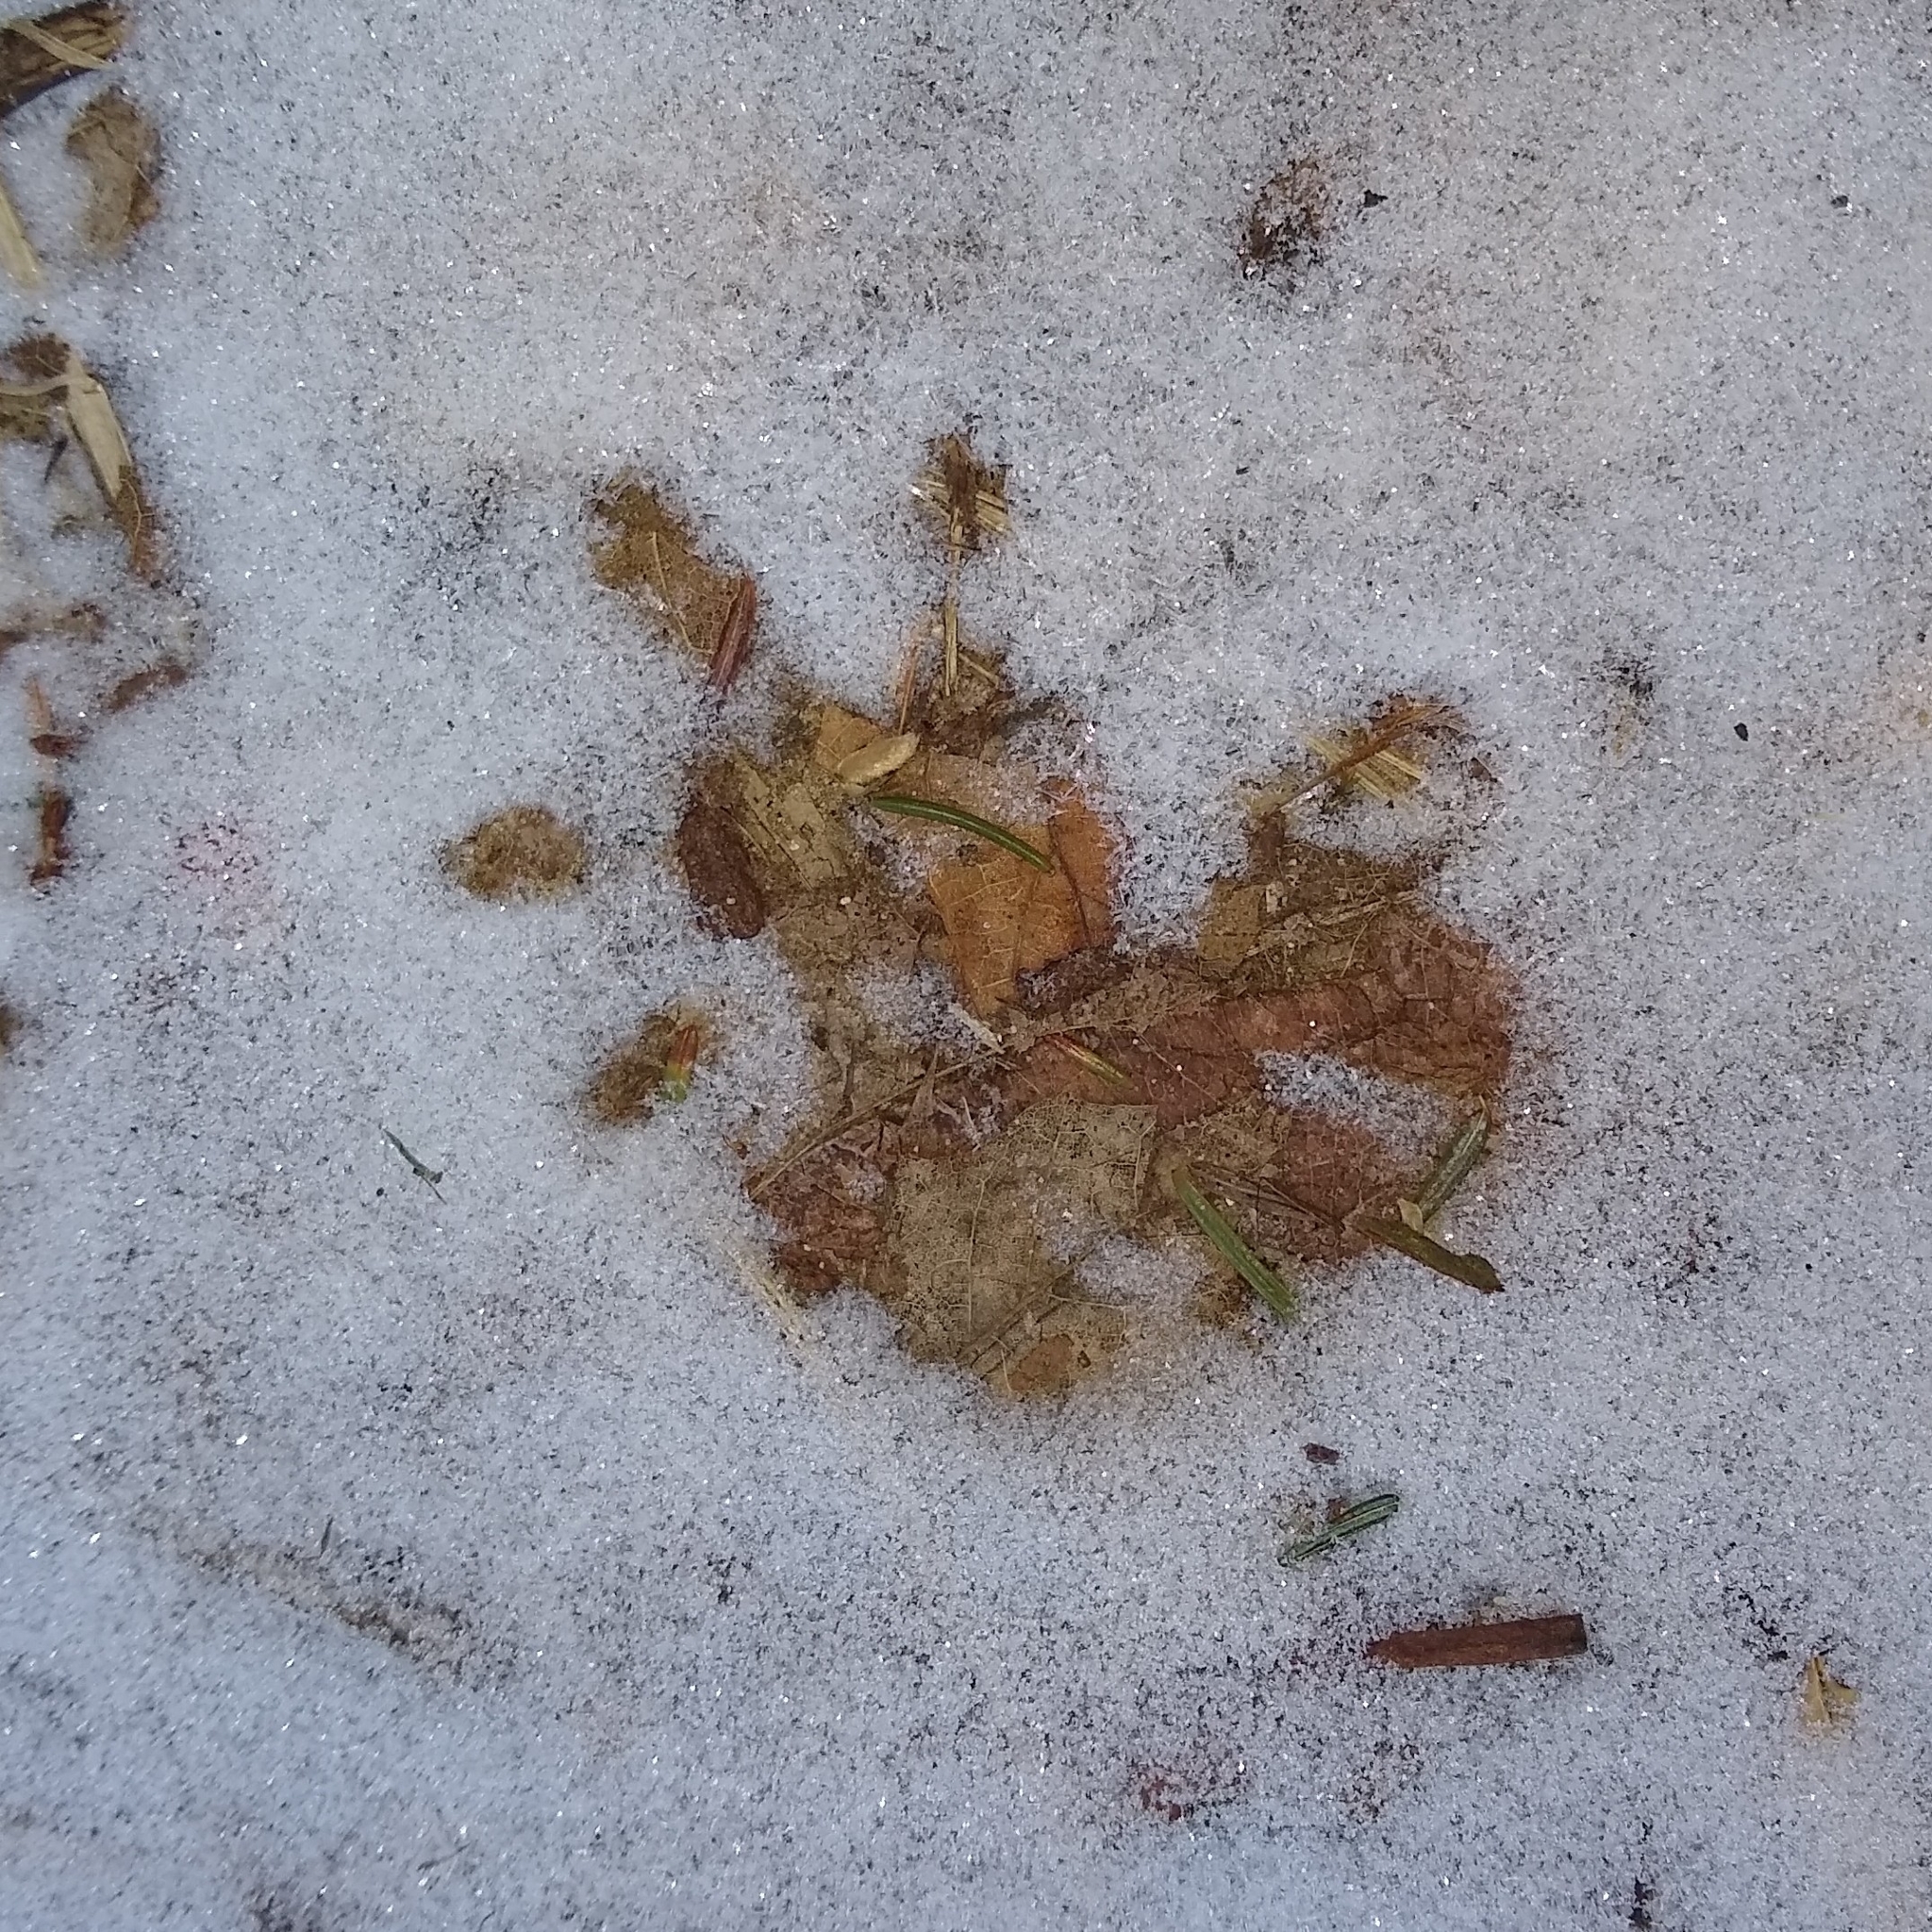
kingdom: Animalia
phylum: Chordata
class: Mammalia
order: Didelphimorphia
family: Didelphidae
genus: Didelphis
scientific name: Didelphis virginiana
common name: Virginia opossum
